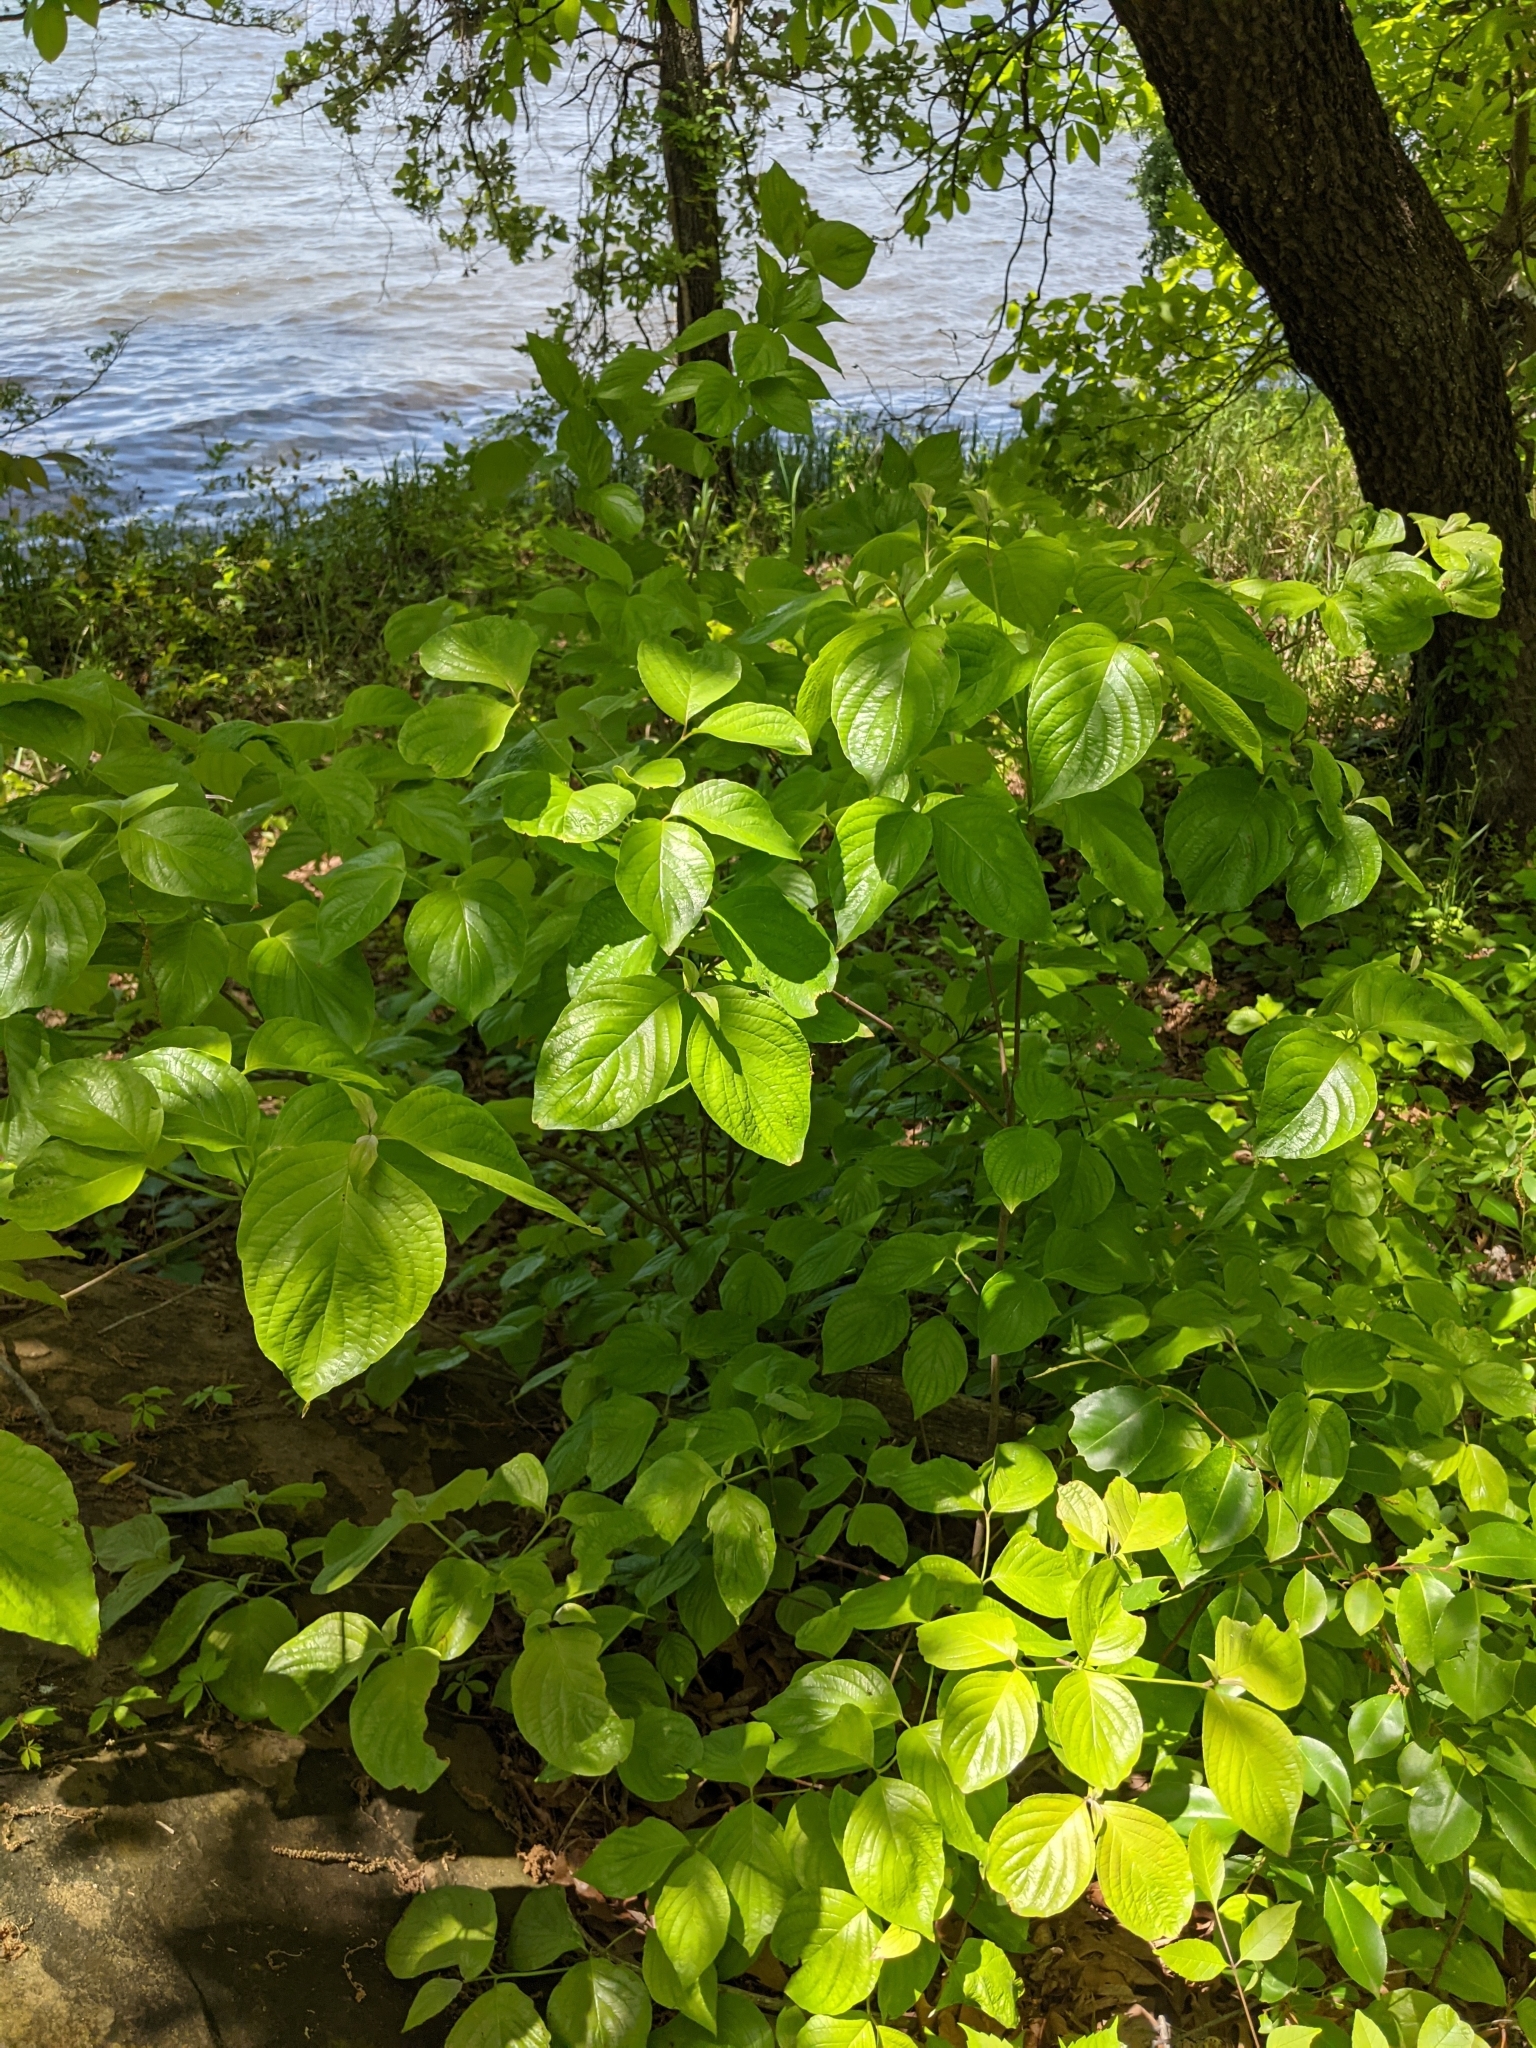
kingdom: Plantae
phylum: Tracheophyta
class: Magnoliopsida
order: Cornales
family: Cornaceae
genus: Cornus
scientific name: Cornus florida
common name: Flowering dogwood
